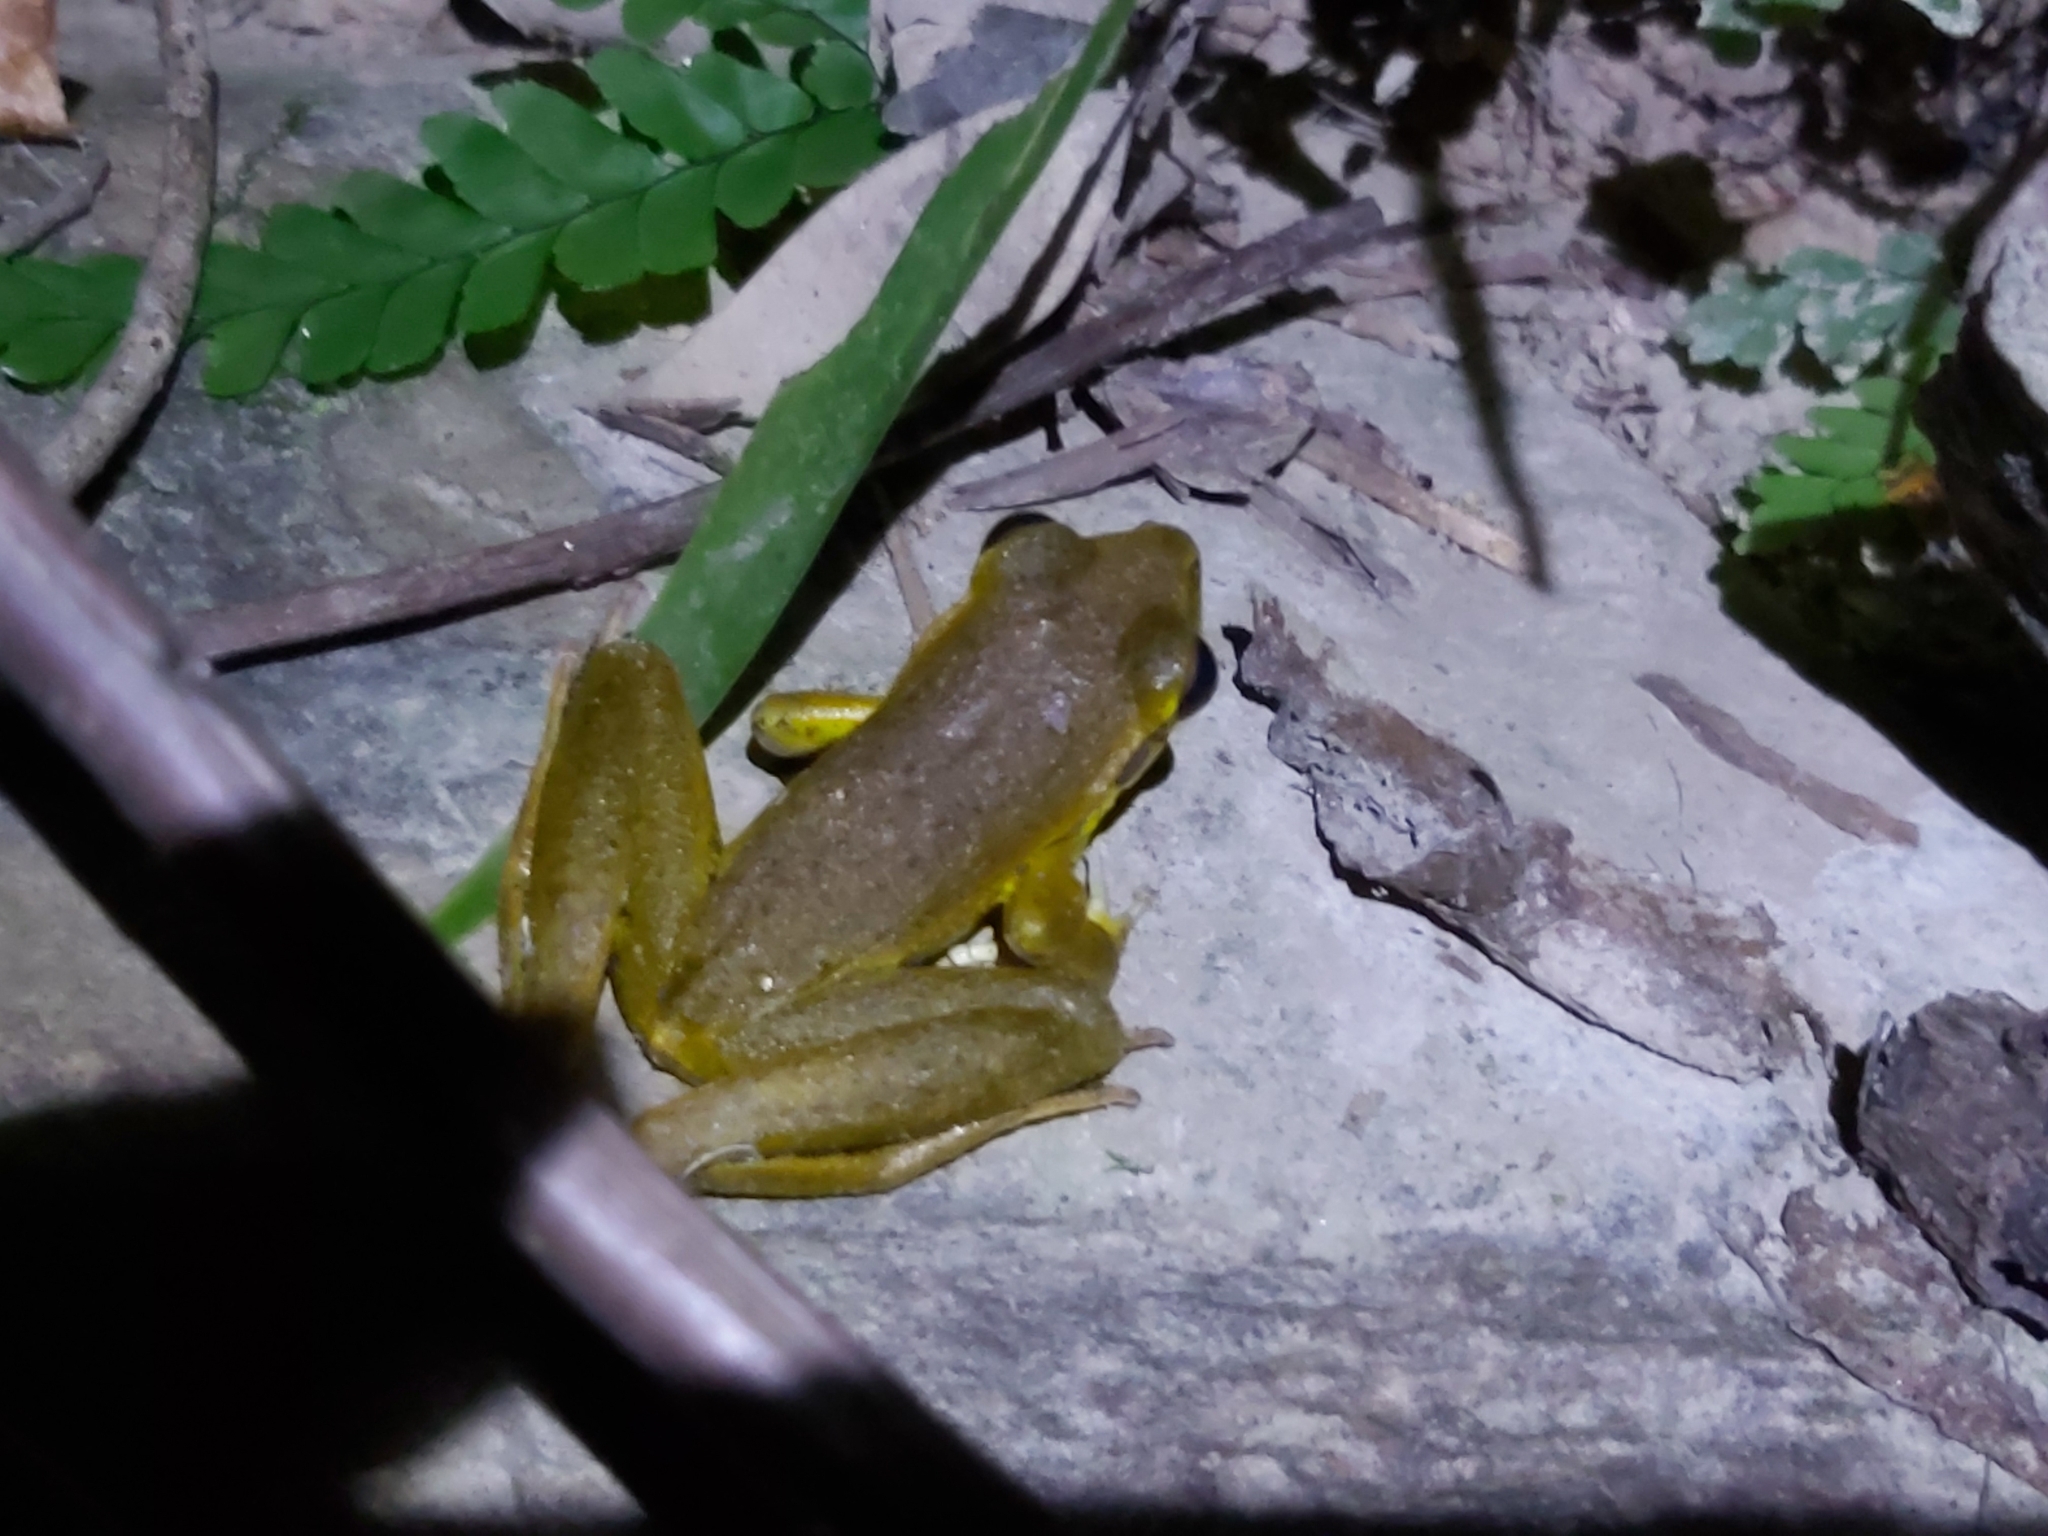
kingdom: Animalia
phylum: Chordata
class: Amphibia
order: Anura
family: Hylidae
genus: Ranoidea
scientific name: Ranoidea
